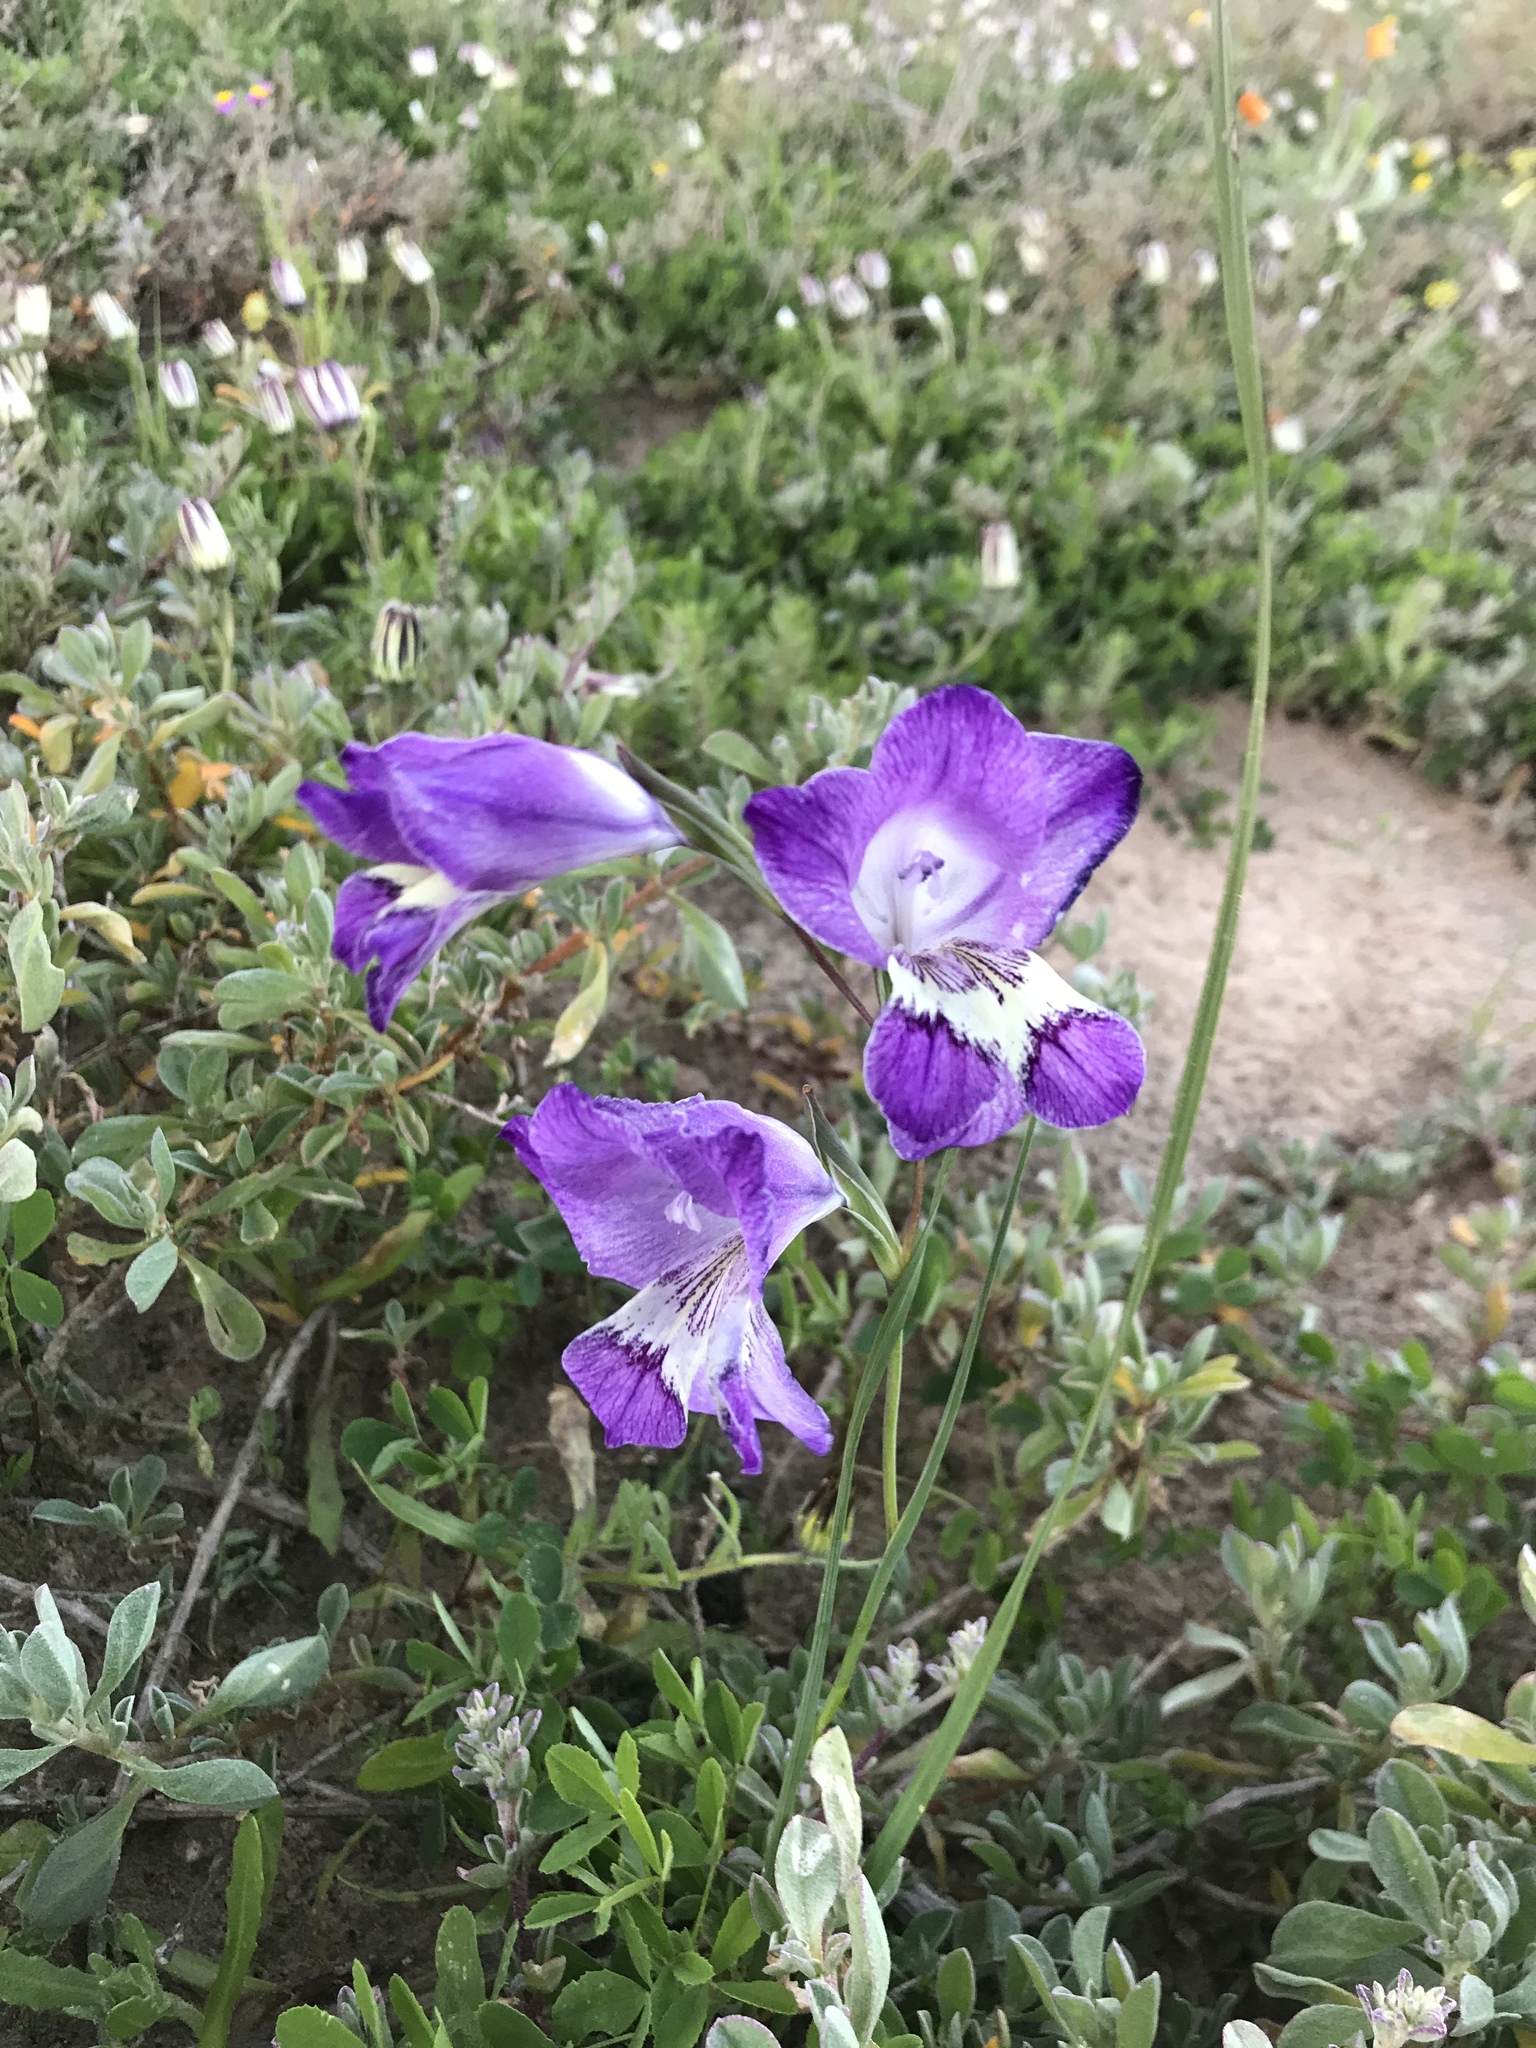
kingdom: Plantae
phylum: Tracheophyta
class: Liliopsida
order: Asparagales
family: Iridaceae
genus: Gladiolus
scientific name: Gladiolus carinatus
